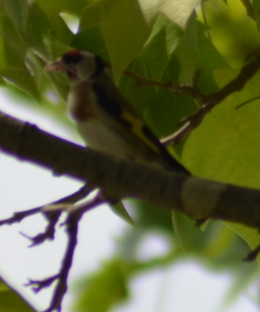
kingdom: Animalia
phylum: Chordata
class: Aves
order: Passeriformes
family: Fringillidae
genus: Carduelis
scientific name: Carduelis carduelis
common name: European goldfinch
